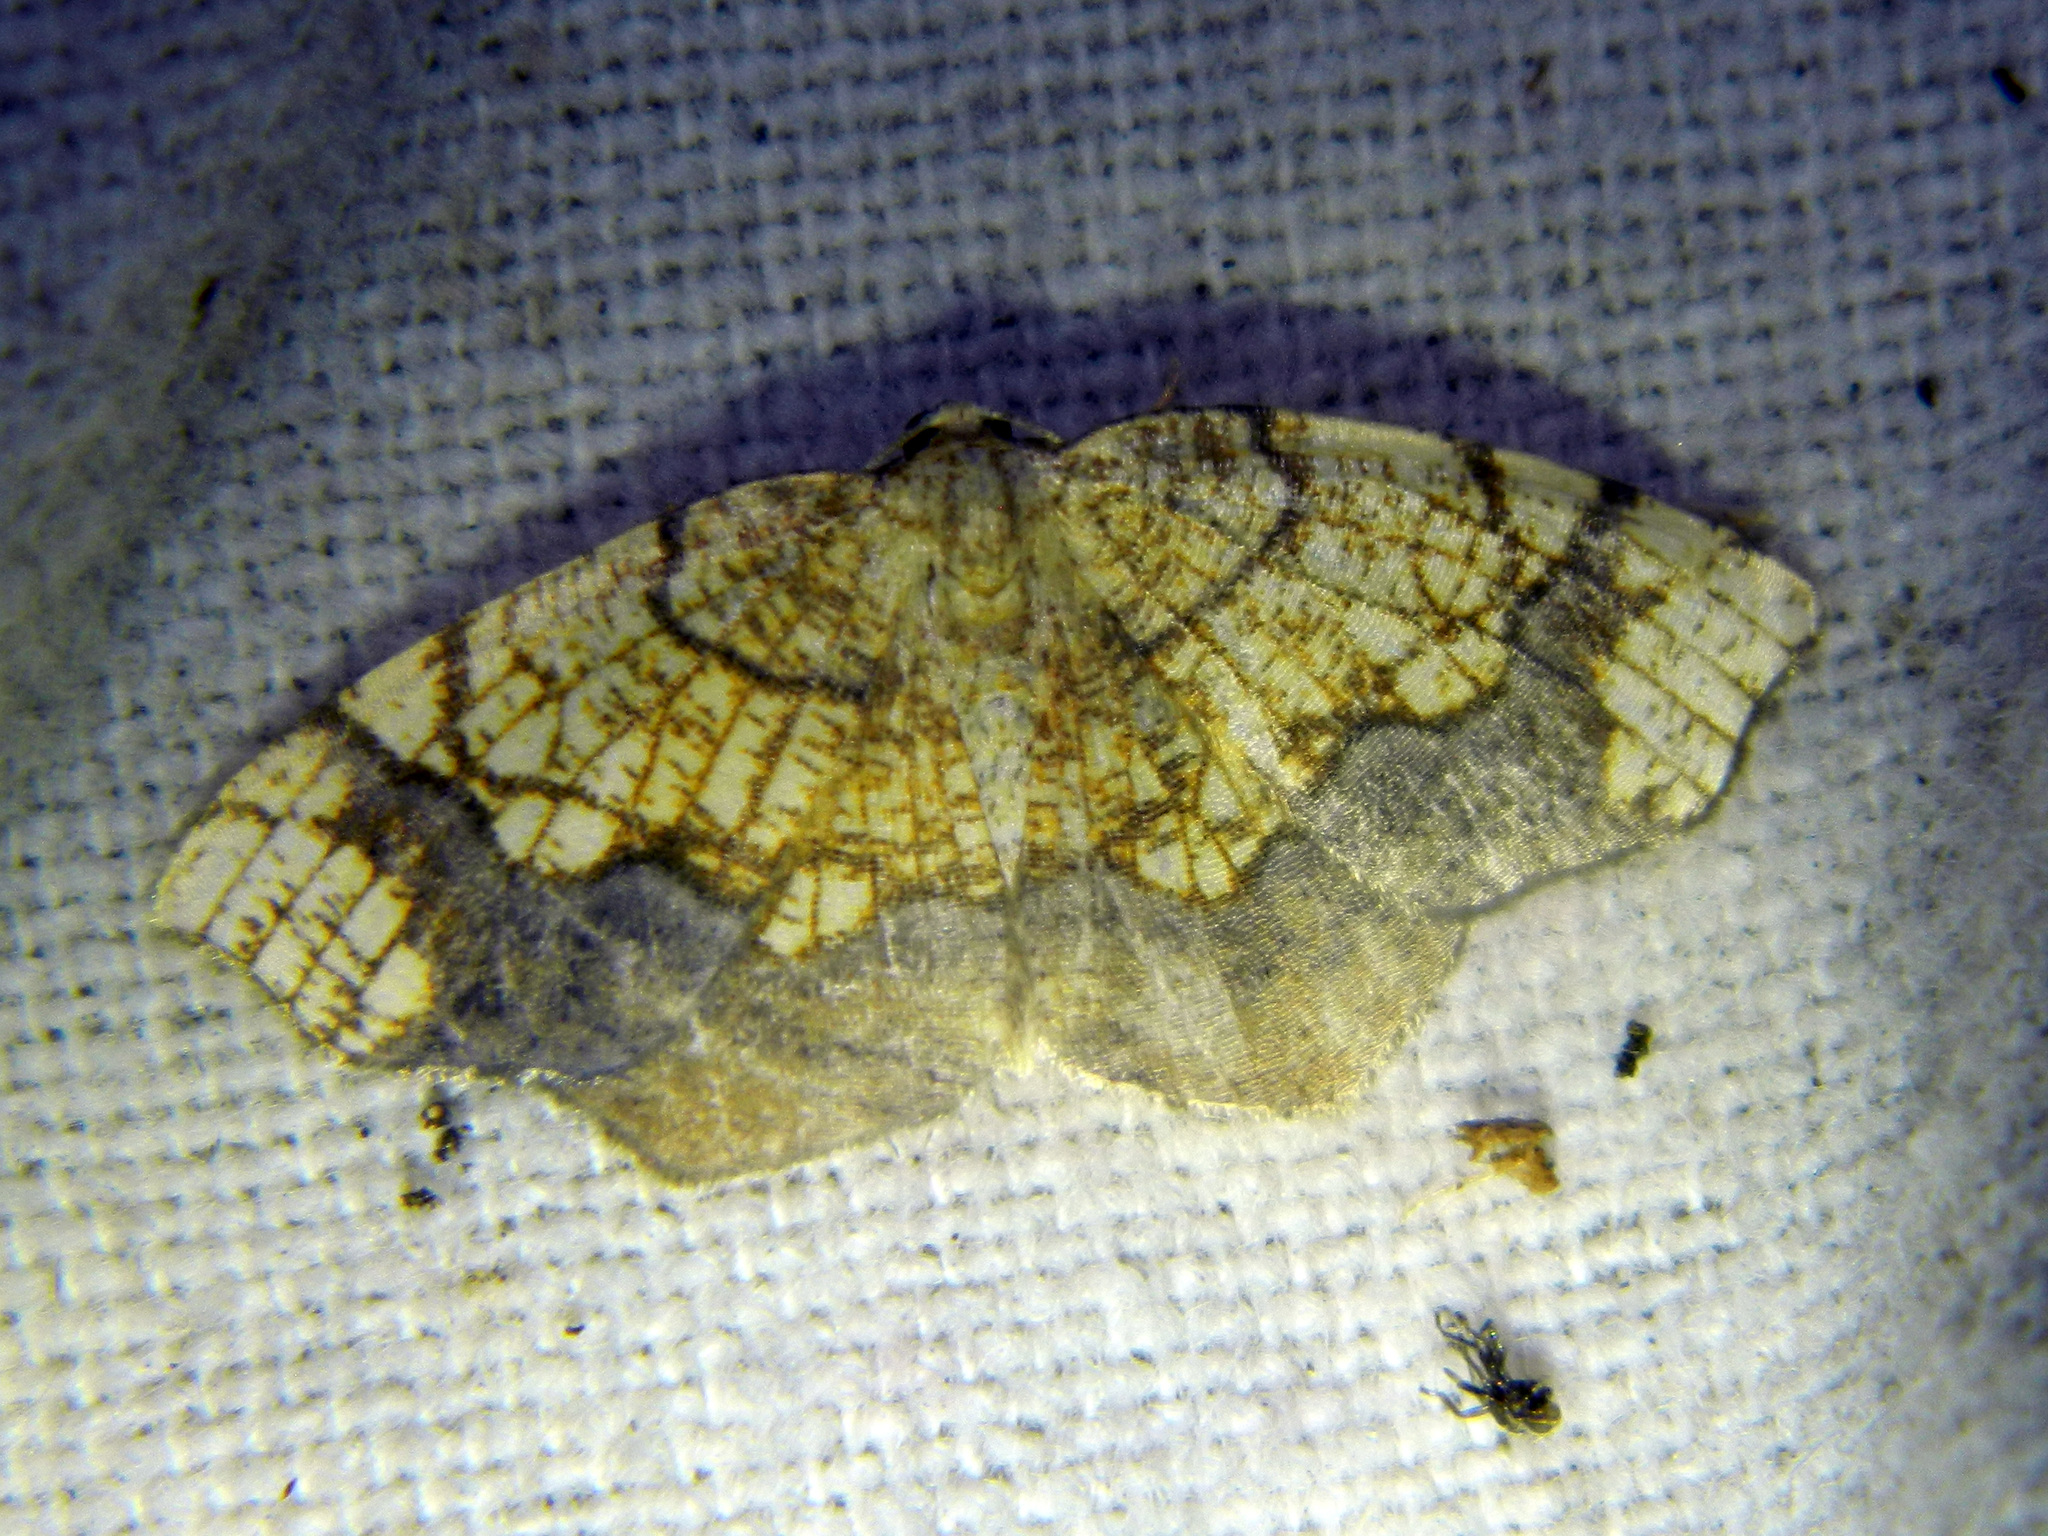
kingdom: Animalia
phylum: Arthropoda
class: Insecta
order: Lepidoptera
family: Geometridae
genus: Nematocampa
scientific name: Nematocampa resistaria
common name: Horned spanworm moth
